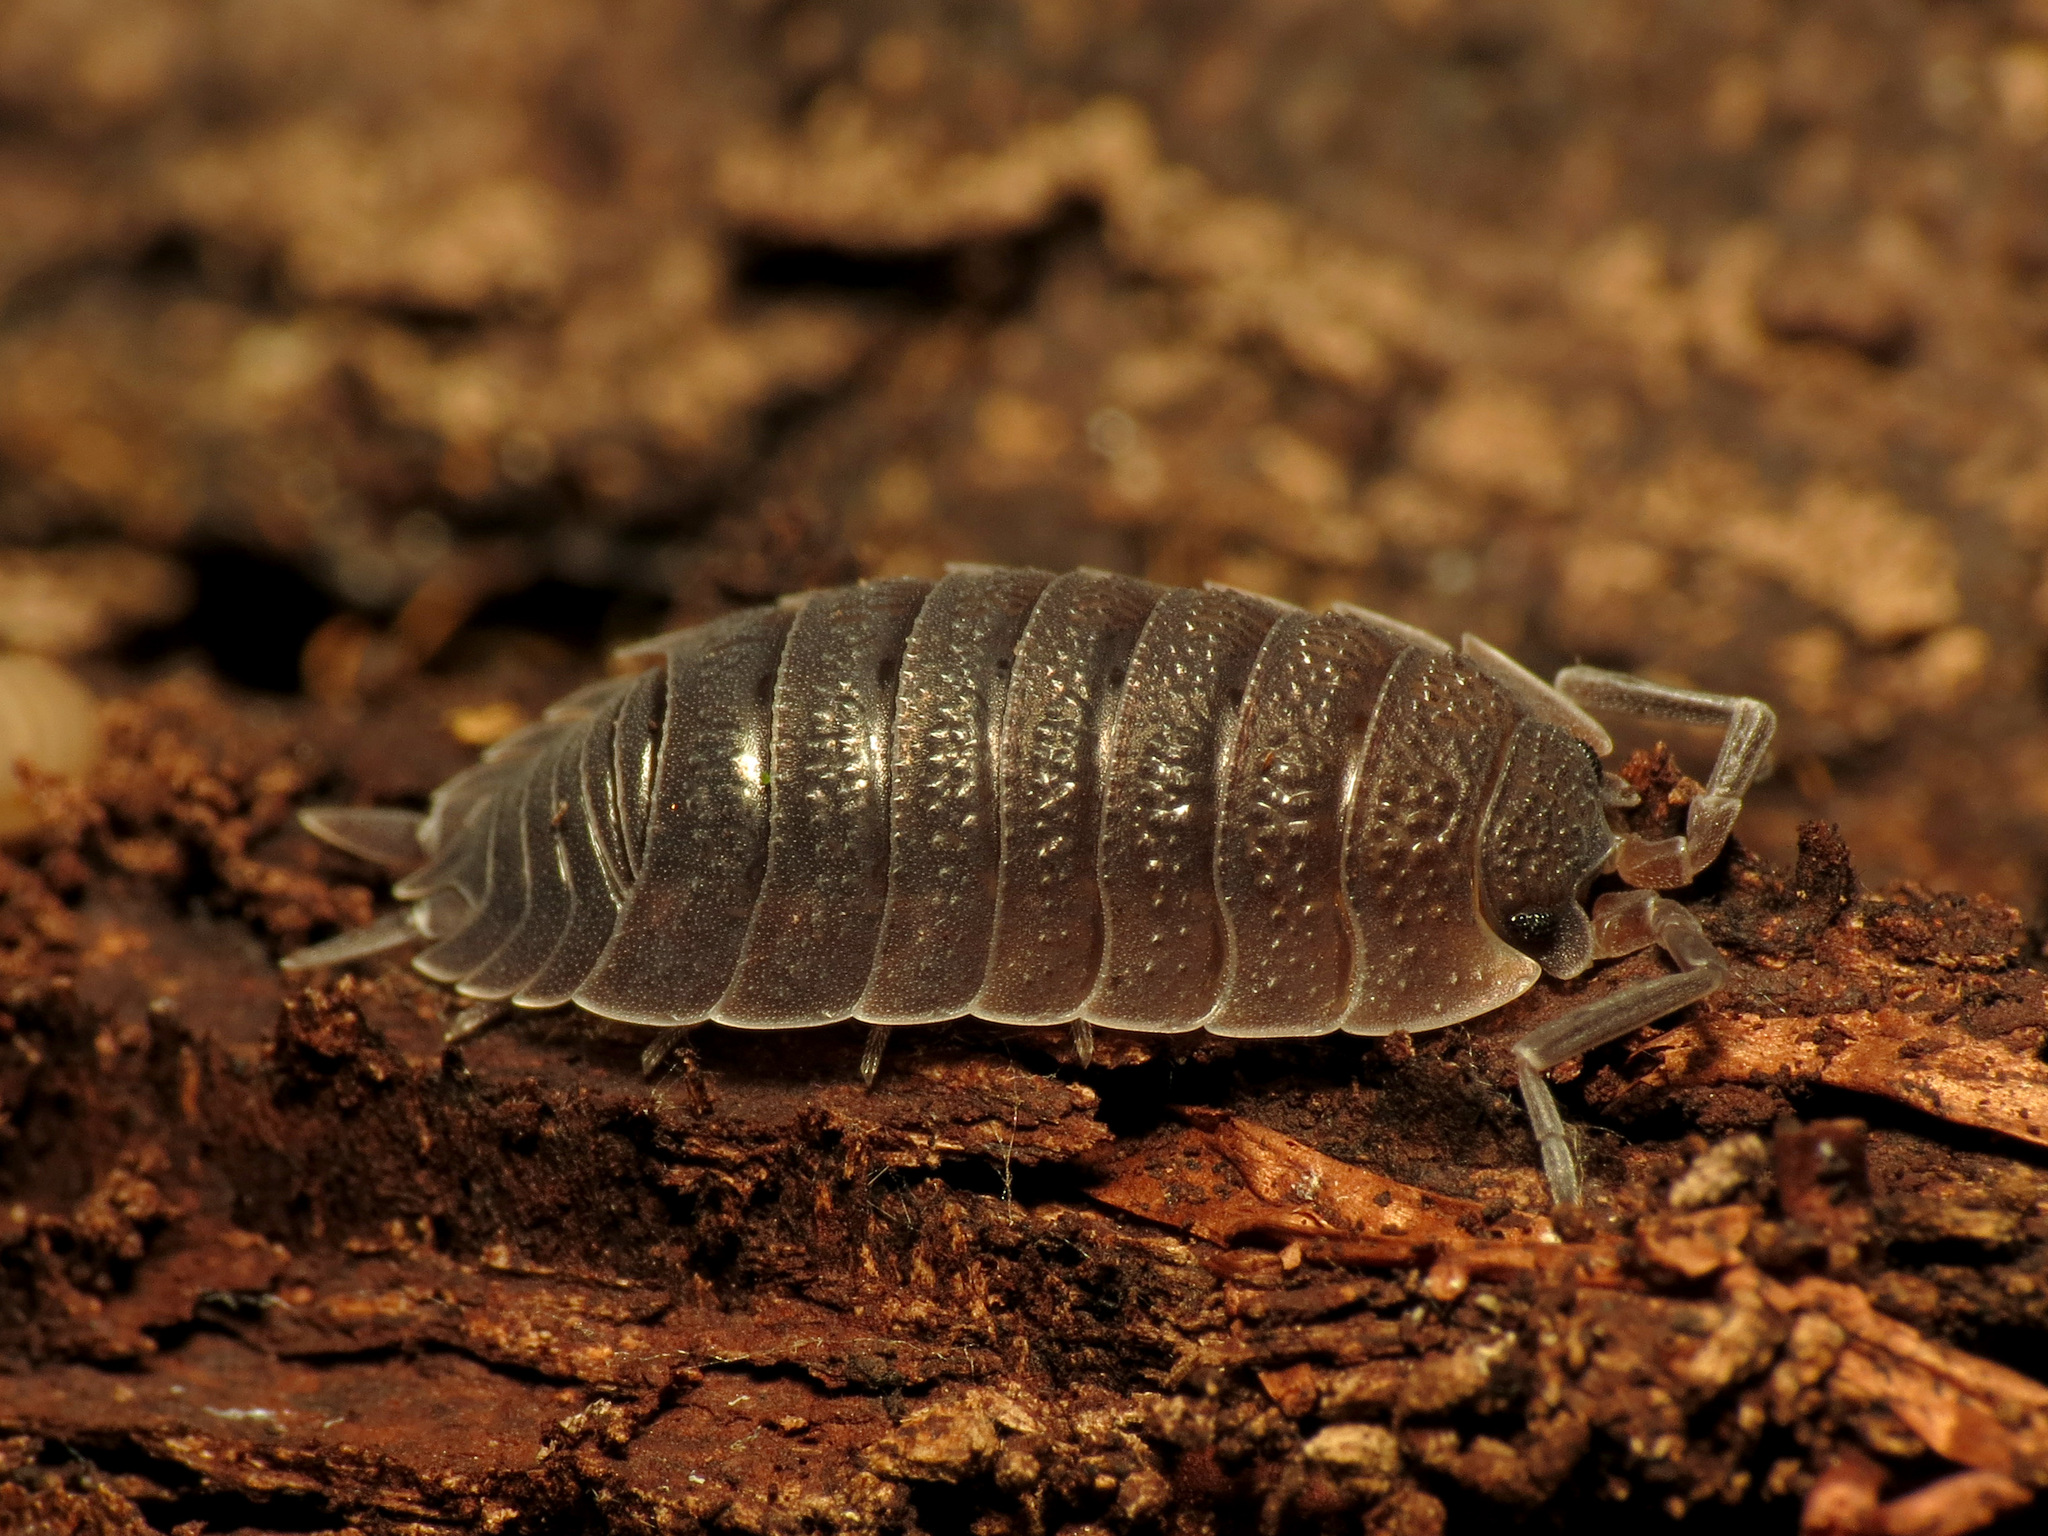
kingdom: Animalia
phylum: Arthropoda
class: Malacostraca
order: Isopoda
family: Porcellionidae
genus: Porcellio
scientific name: Porcellio scaber
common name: Common rough woodlouse
